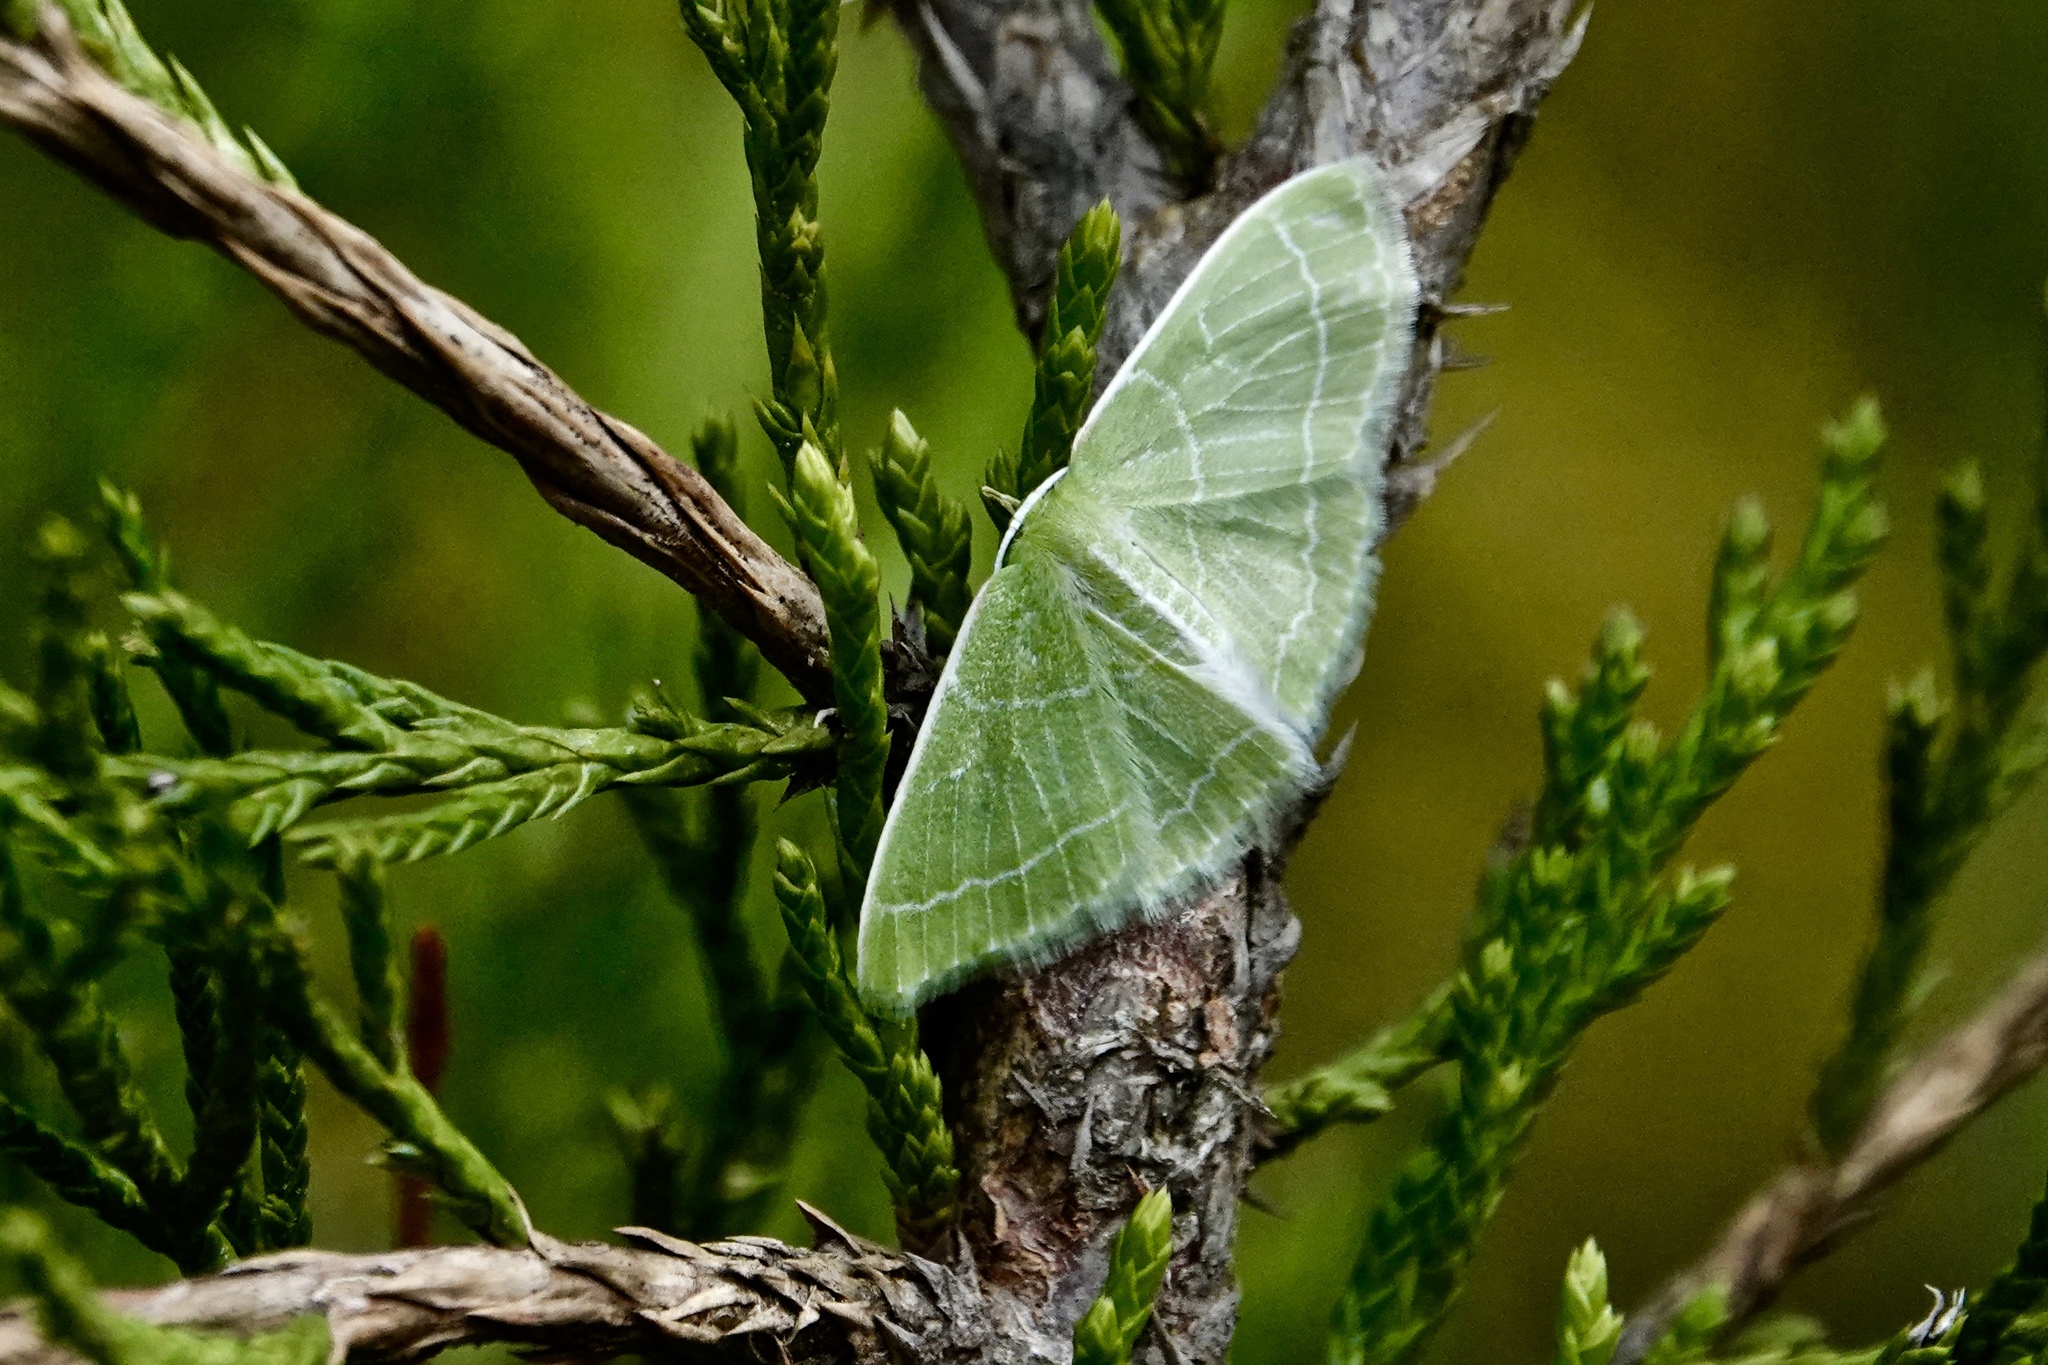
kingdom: Animalia
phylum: Arthropoda
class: Insecta
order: Lepidoptera
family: Geometridae
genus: Synchlora
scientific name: Synchlora aerata
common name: Wavy-lined emerald
